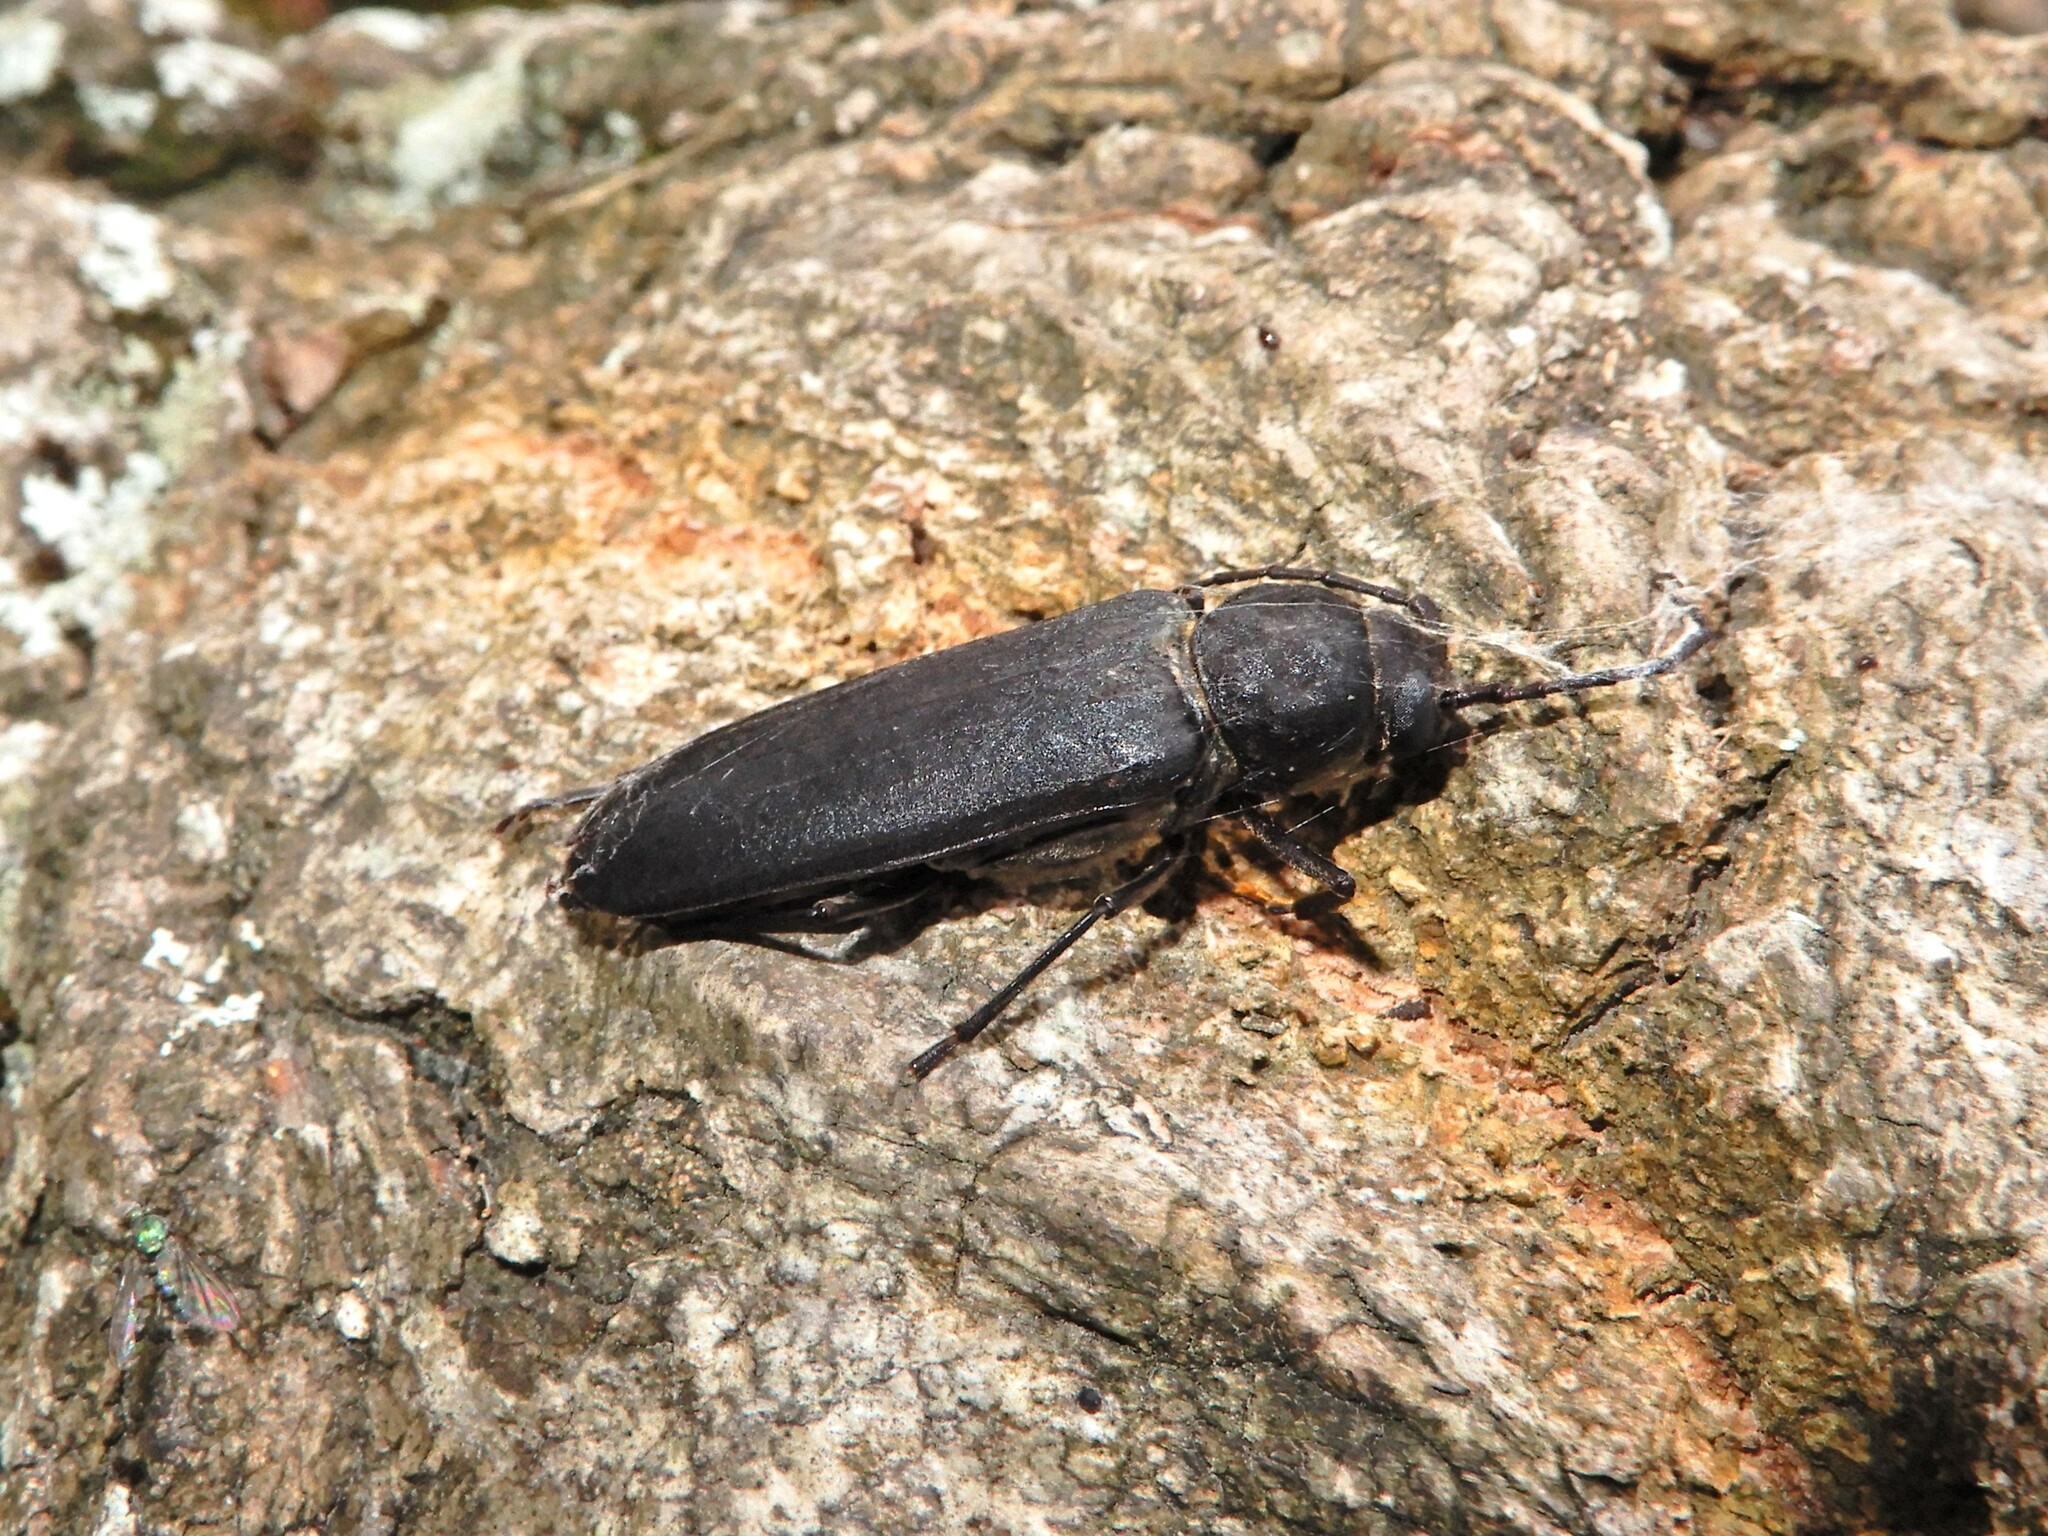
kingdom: Animalia
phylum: Arthropoda
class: Insecta
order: Coleoptera
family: Cerambycidae
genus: Arhopalus
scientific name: Arhopalus ferus
